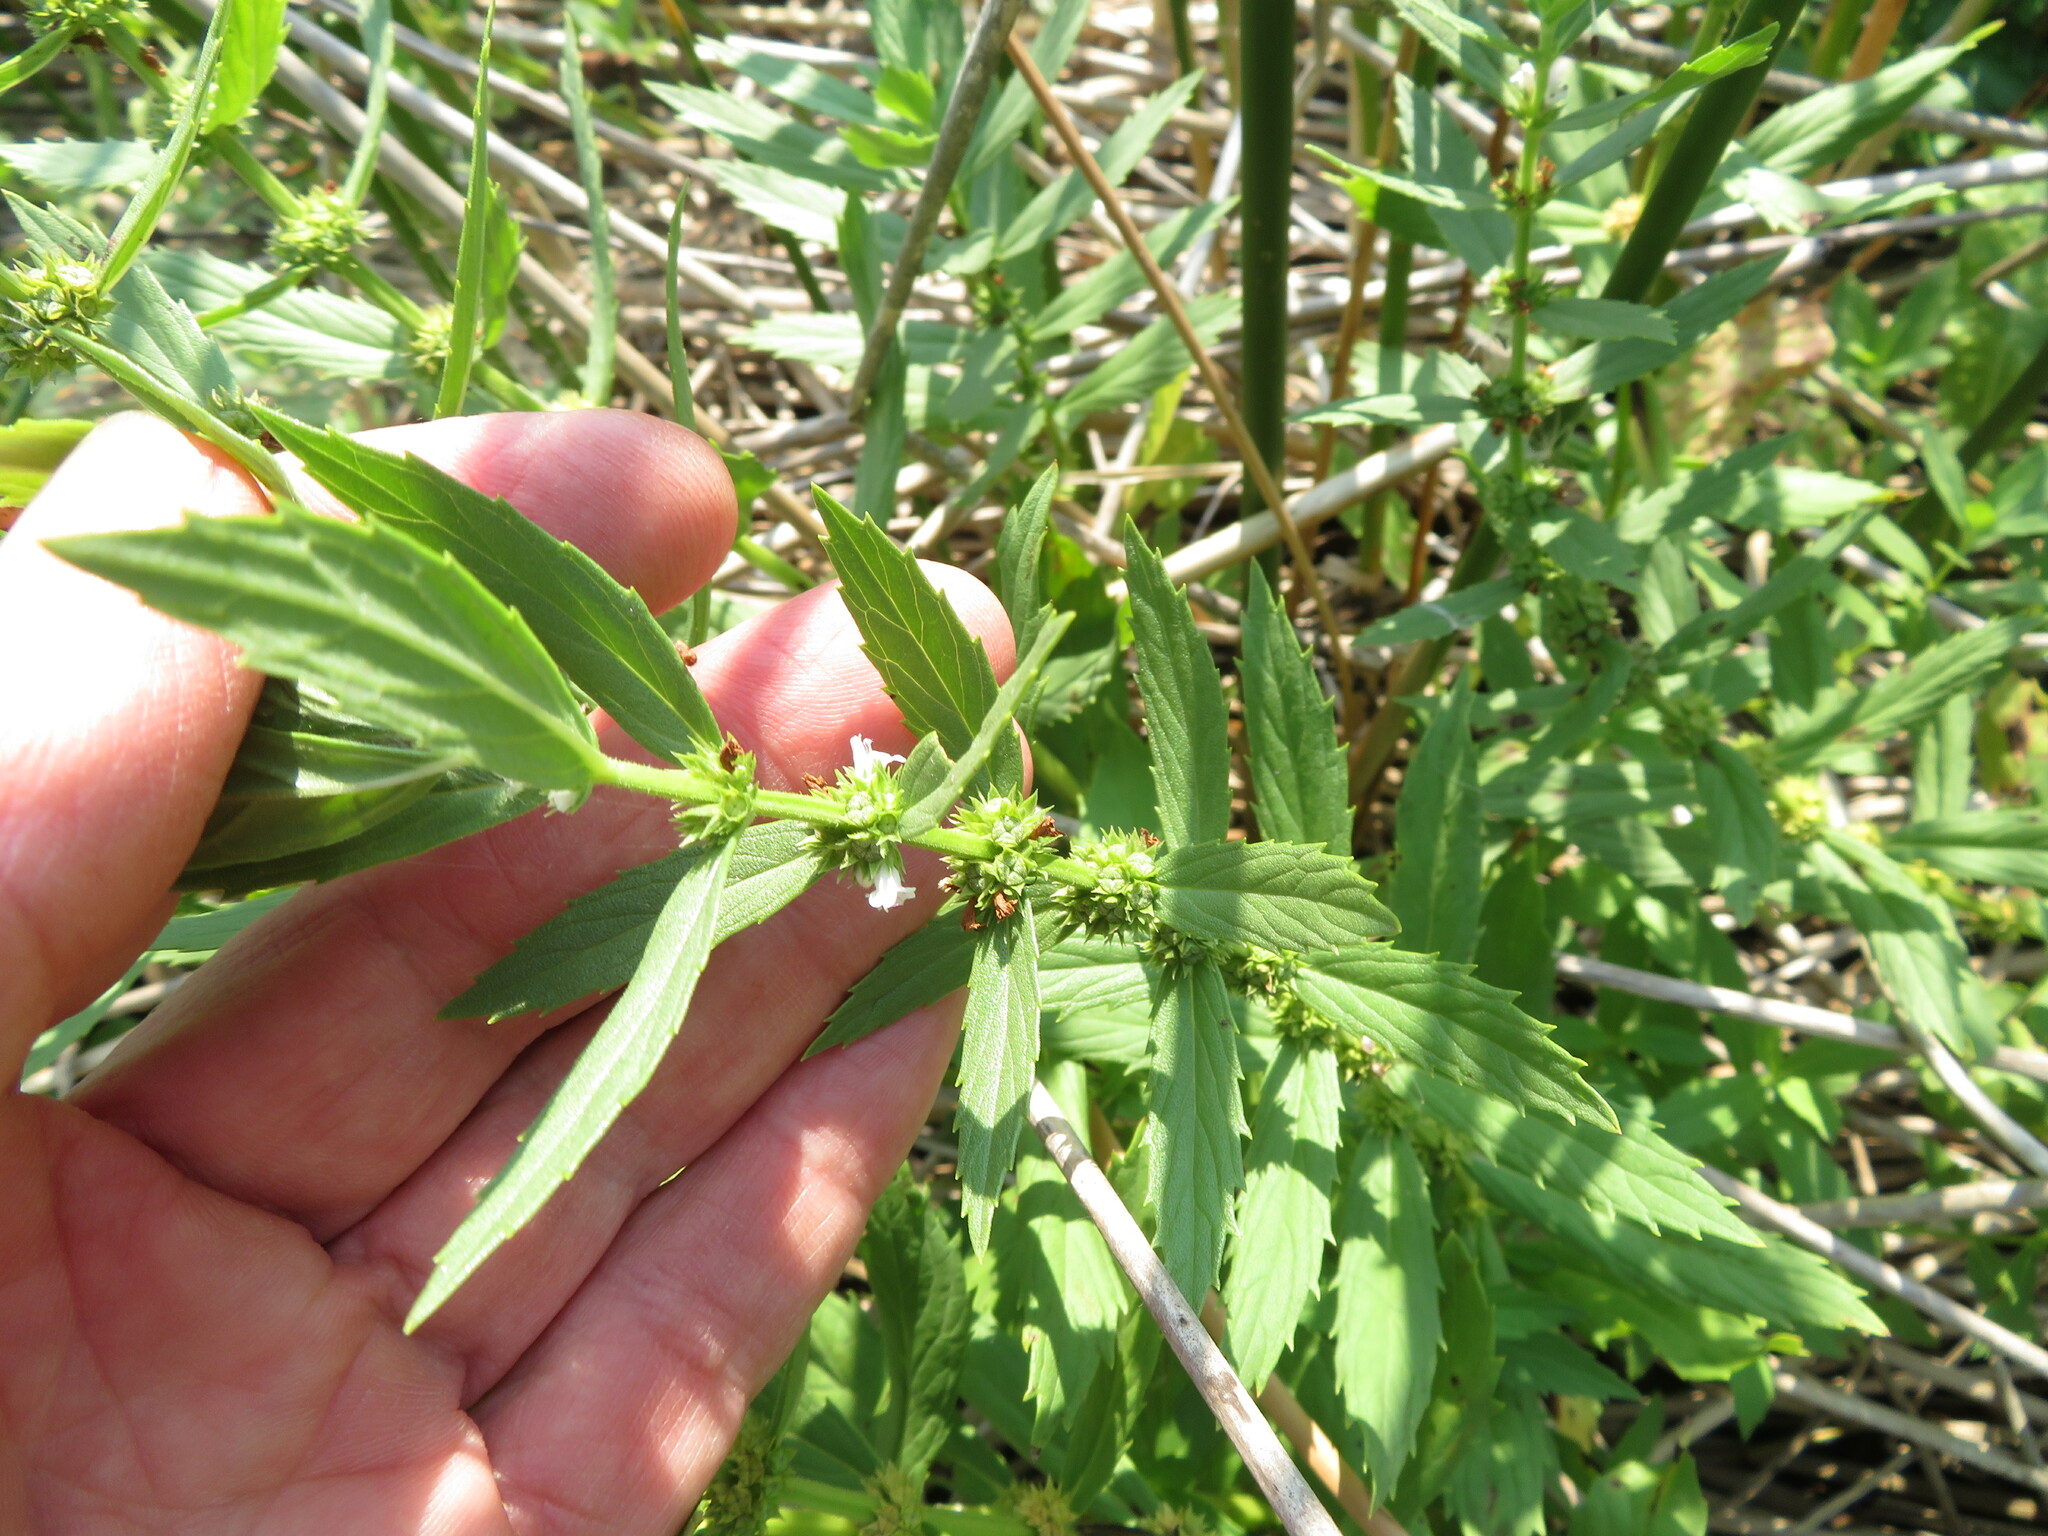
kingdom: Plantae
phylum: Tracheophyta
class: Magnoliopsida
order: Lamiales
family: Lamiaceae
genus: Lycopus
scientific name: Lycopus asper
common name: Rough water-horehound
